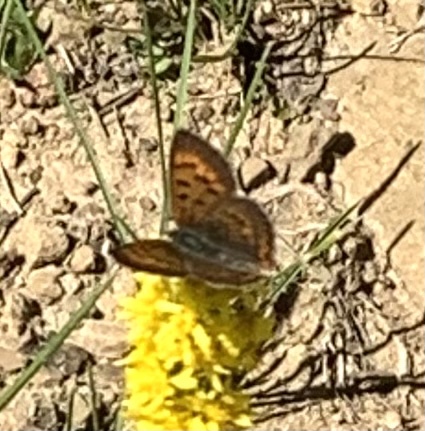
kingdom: Animalia
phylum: Arthropoda
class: Insecta
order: Lepidoptera
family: Lycaenidae
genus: Tharsalea
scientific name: Tharsalea dorcas
